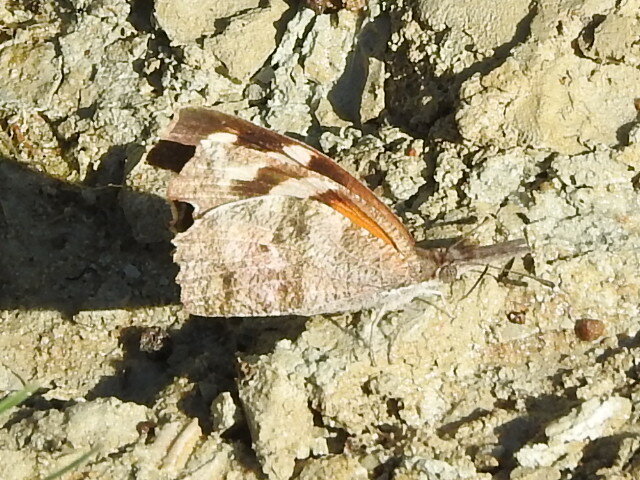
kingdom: Animalia
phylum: Arthropoda
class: Insecta
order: Lepidoptera
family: Nymphalidae
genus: Libytheana
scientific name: Libytheana carinenta
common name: American snout
